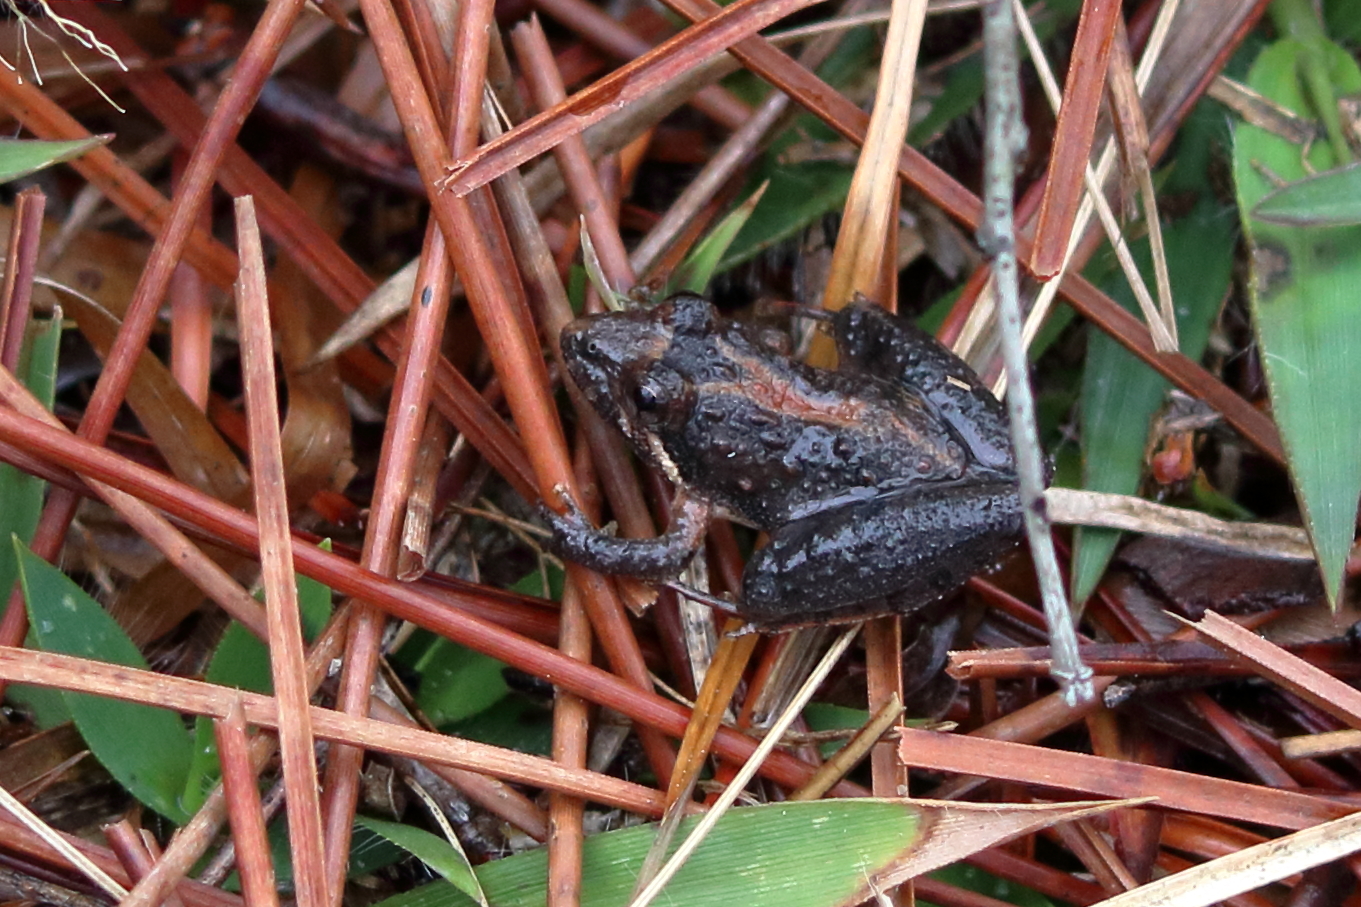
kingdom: Animalia
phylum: Chordata
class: Amphibia
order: Anura
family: Hylidae
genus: Acris
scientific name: Acris gryllus
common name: Southern cricket frog
